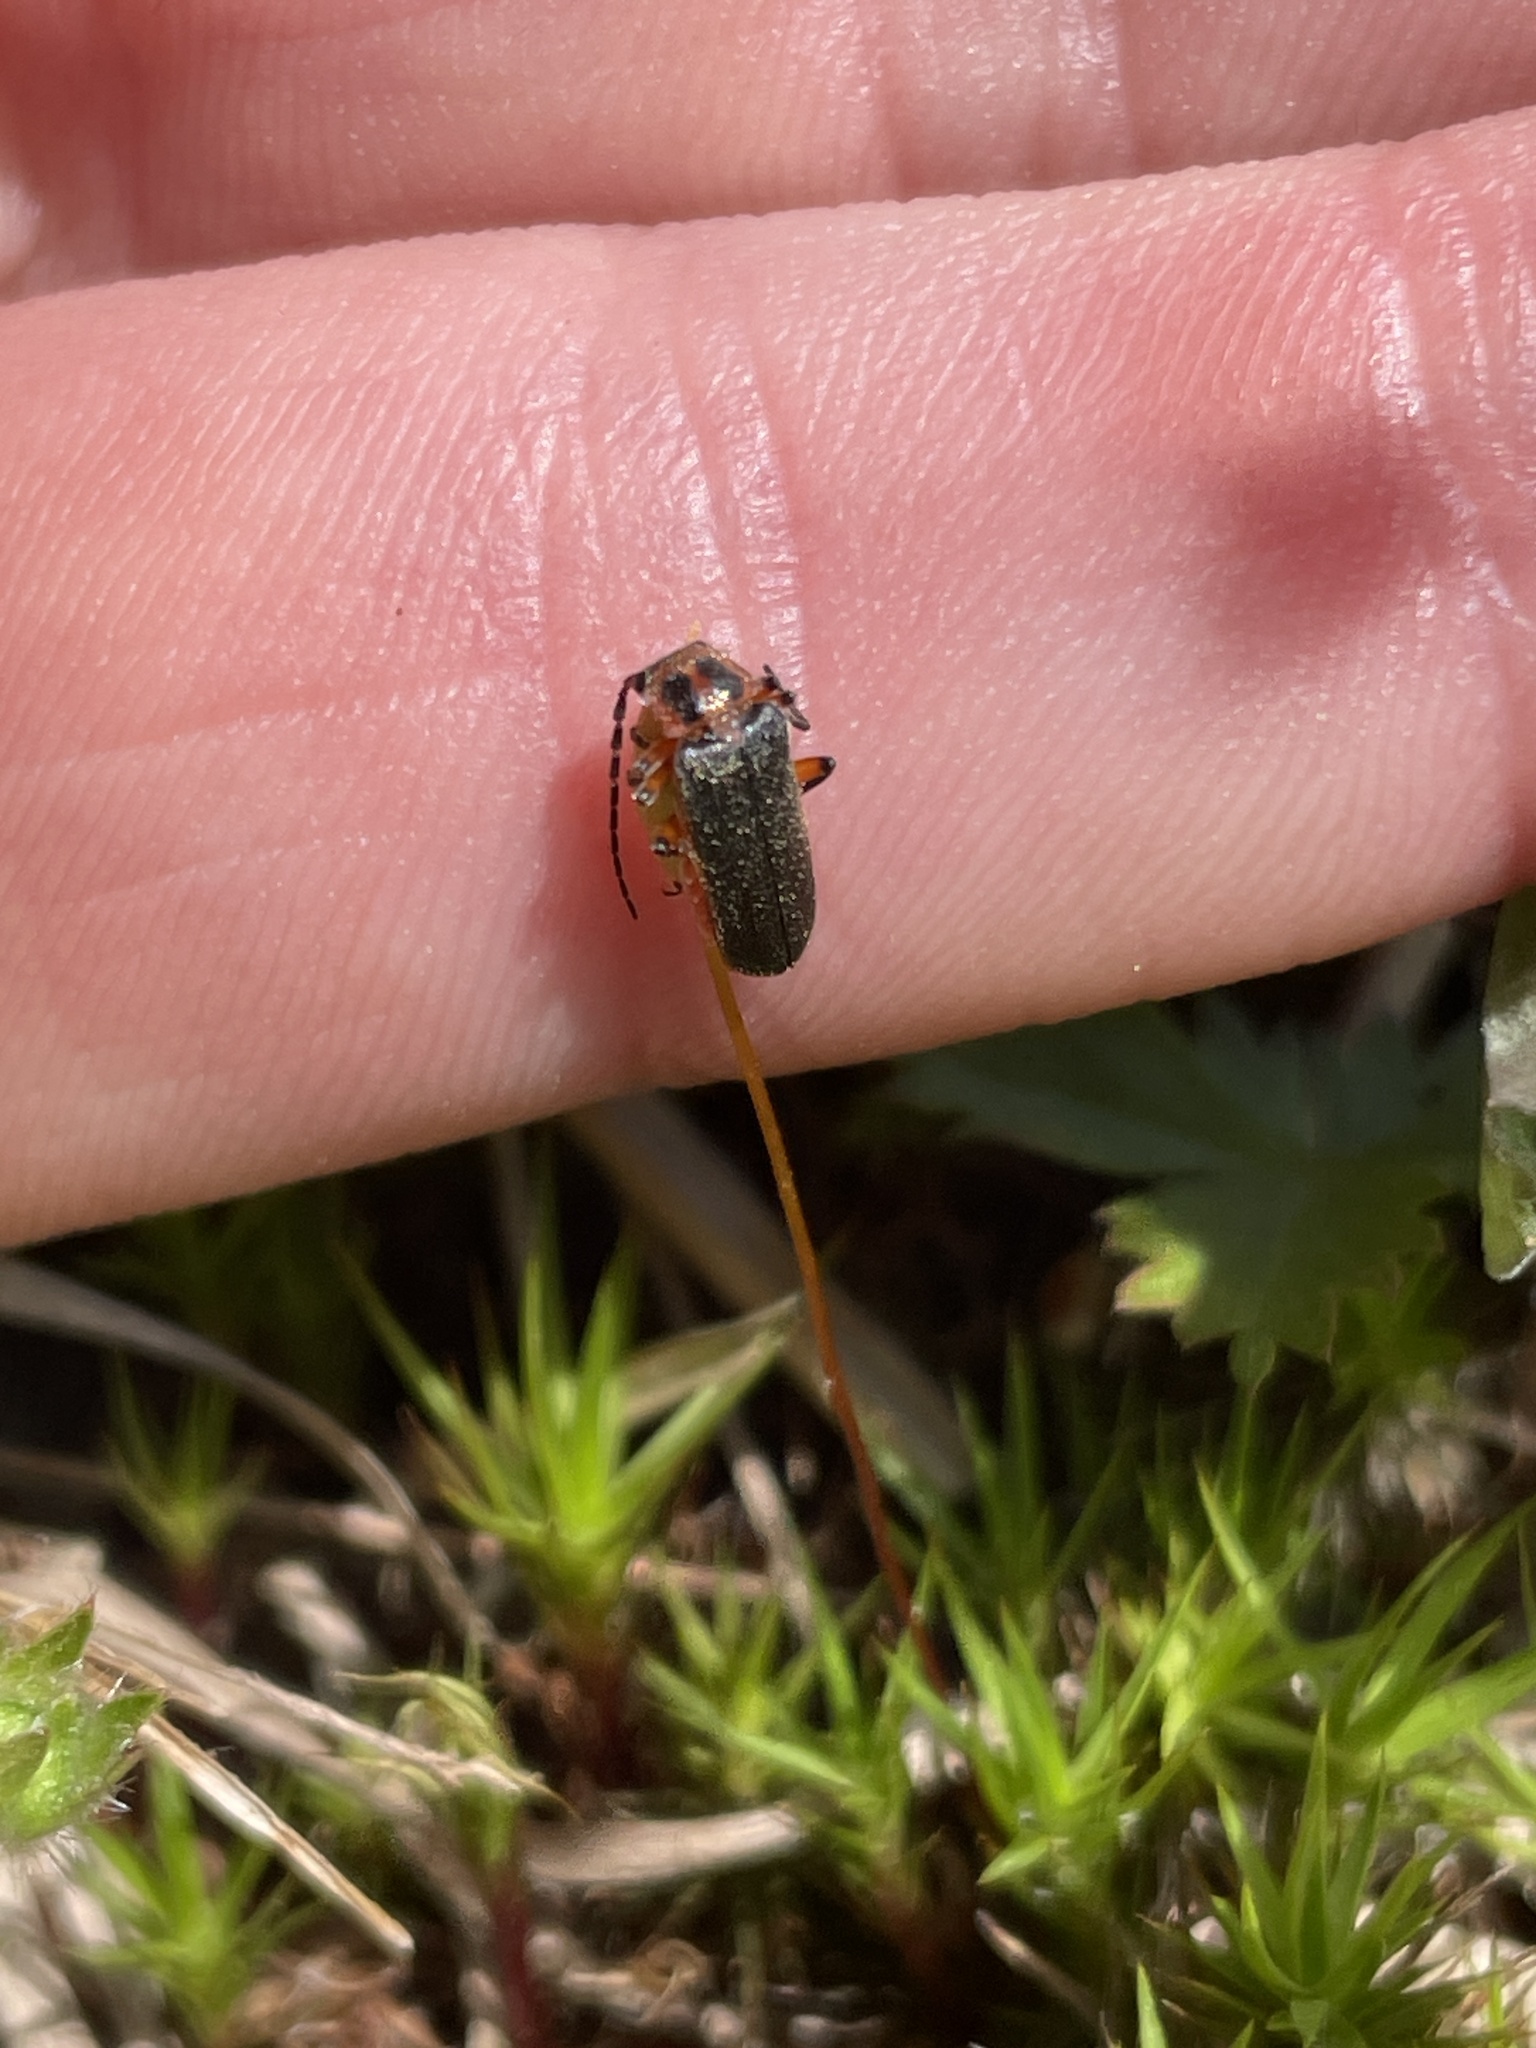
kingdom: Animalia
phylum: Arthropoda
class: Insecta
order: Coleoptera
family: Cantharidae
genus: Atalantycha
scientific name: Atalantycha bilineata
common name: Two-lined leatherwing
